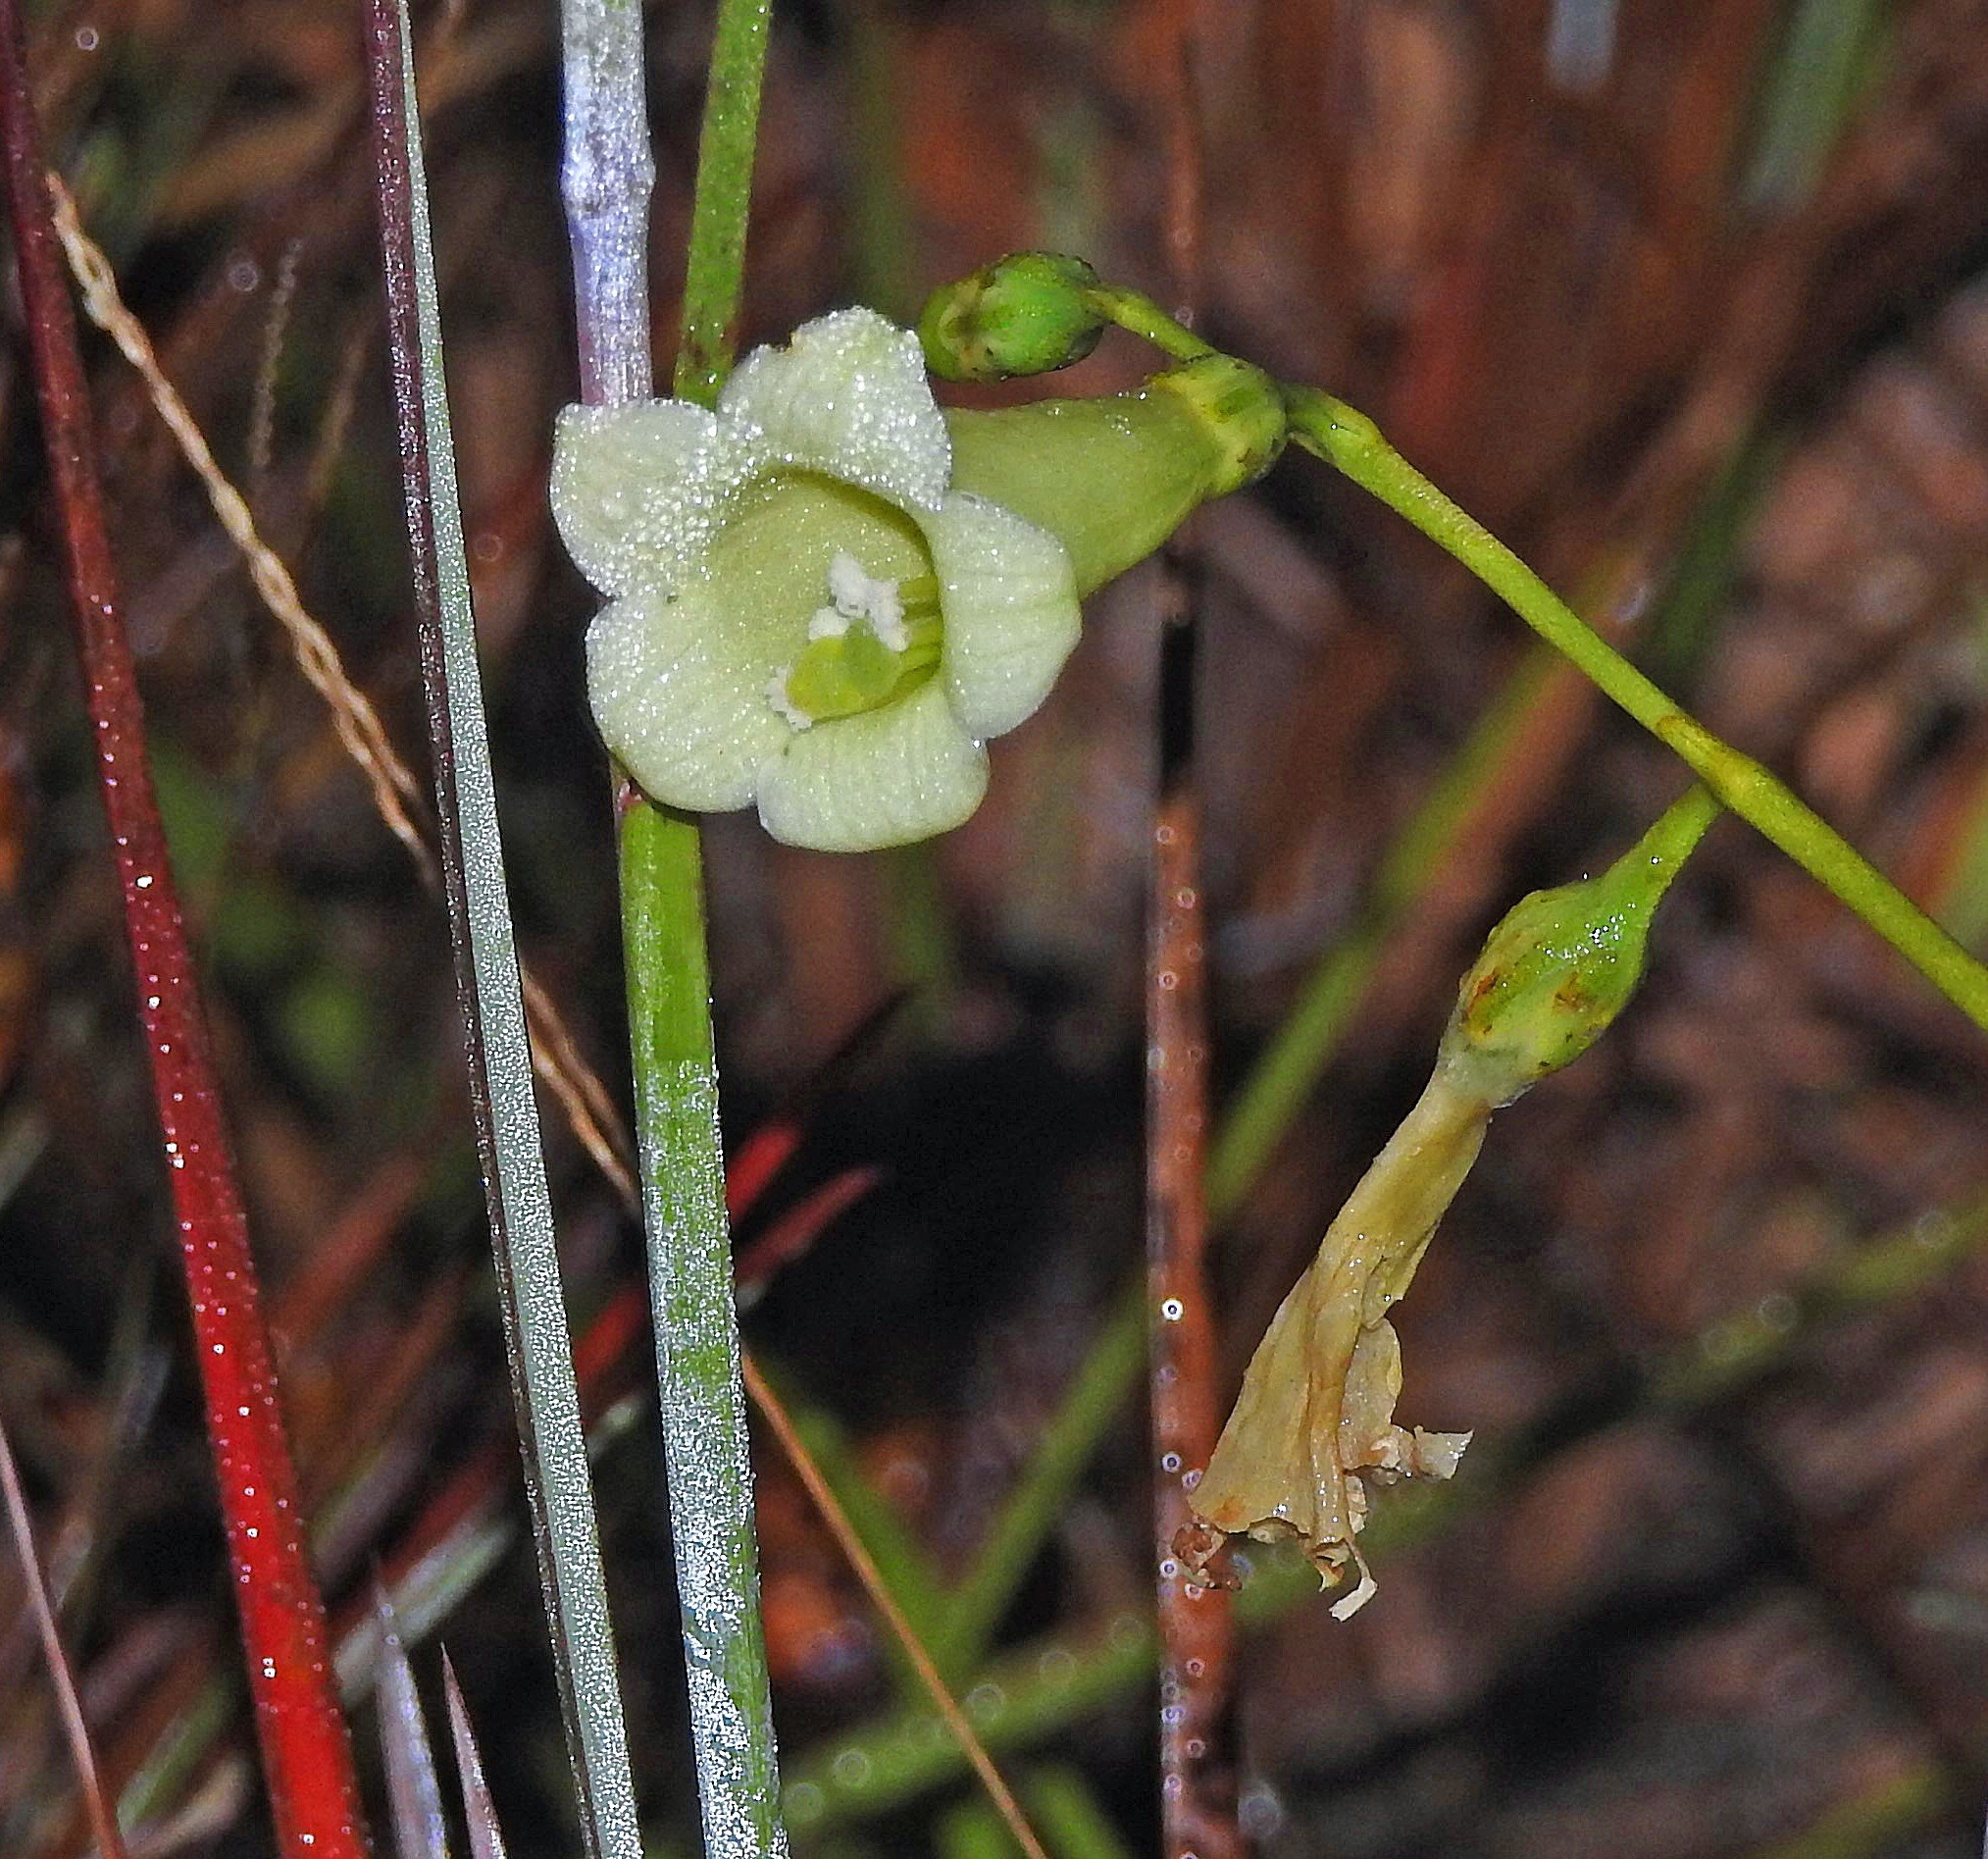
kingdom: Plantae
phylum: Tracheophyta
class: Magnoliopsida
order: Gentianales
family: Gentianaceae
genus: Chelonanthus
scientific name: Chelonanthus viridiflorus
